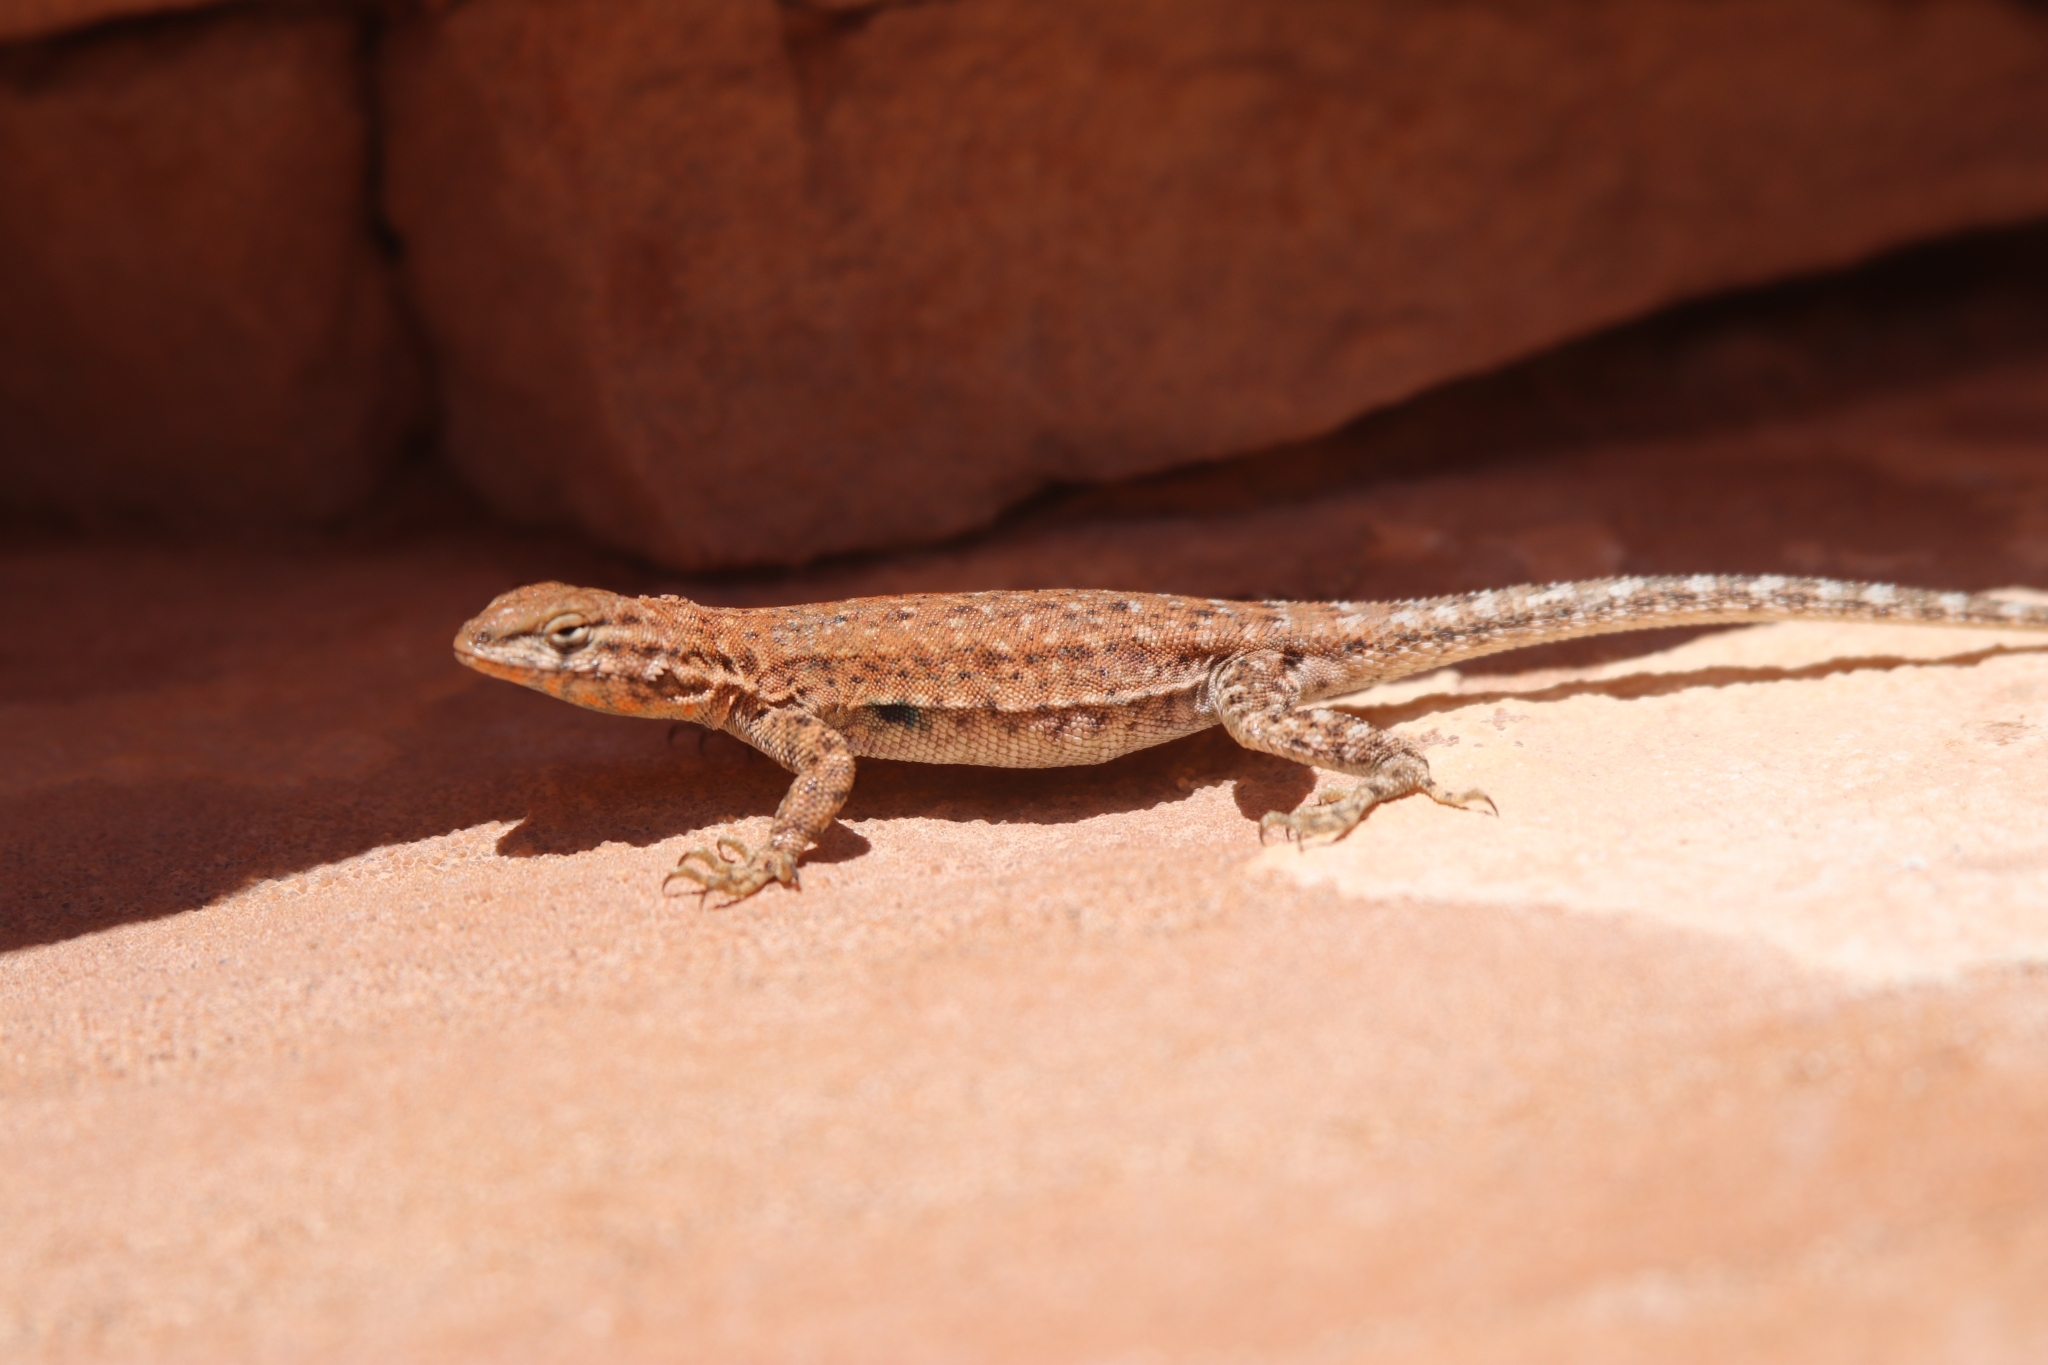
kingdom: Animalia
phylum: Chordata
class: Squamata
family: Phrynosomatidae
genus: Uta
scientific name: Uta stansburiana
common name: Side-blotched lizard
